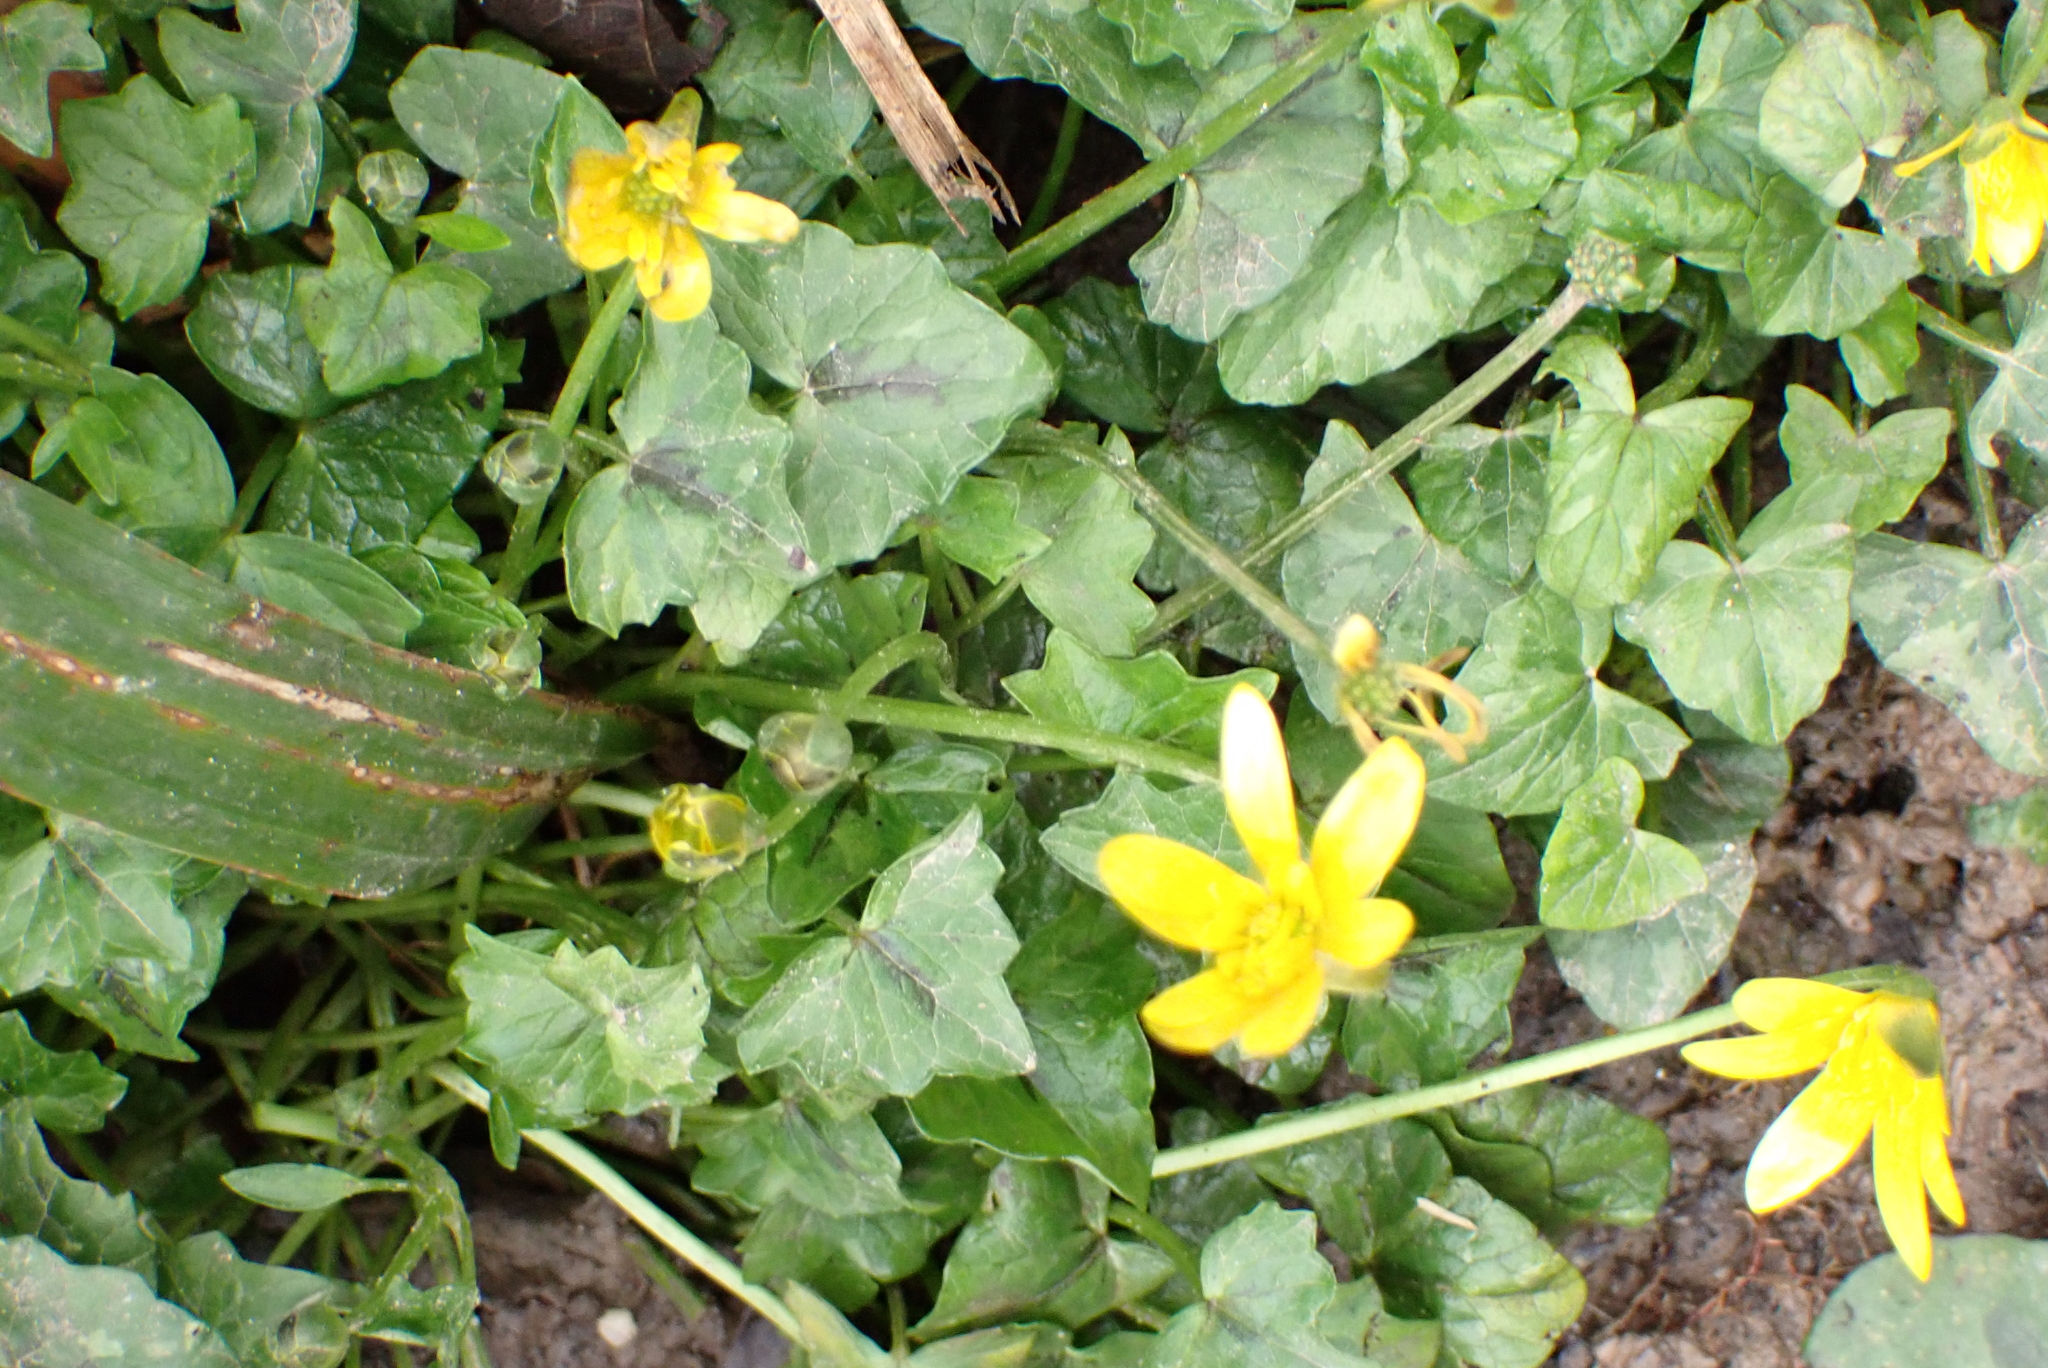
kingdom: Plantae
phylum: Tracheophyta
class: Magnoliopsida
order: Ranunculales
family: Ranunculaceae
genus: Ficaria
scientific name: Ficaria verna
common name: Lesser celandine
